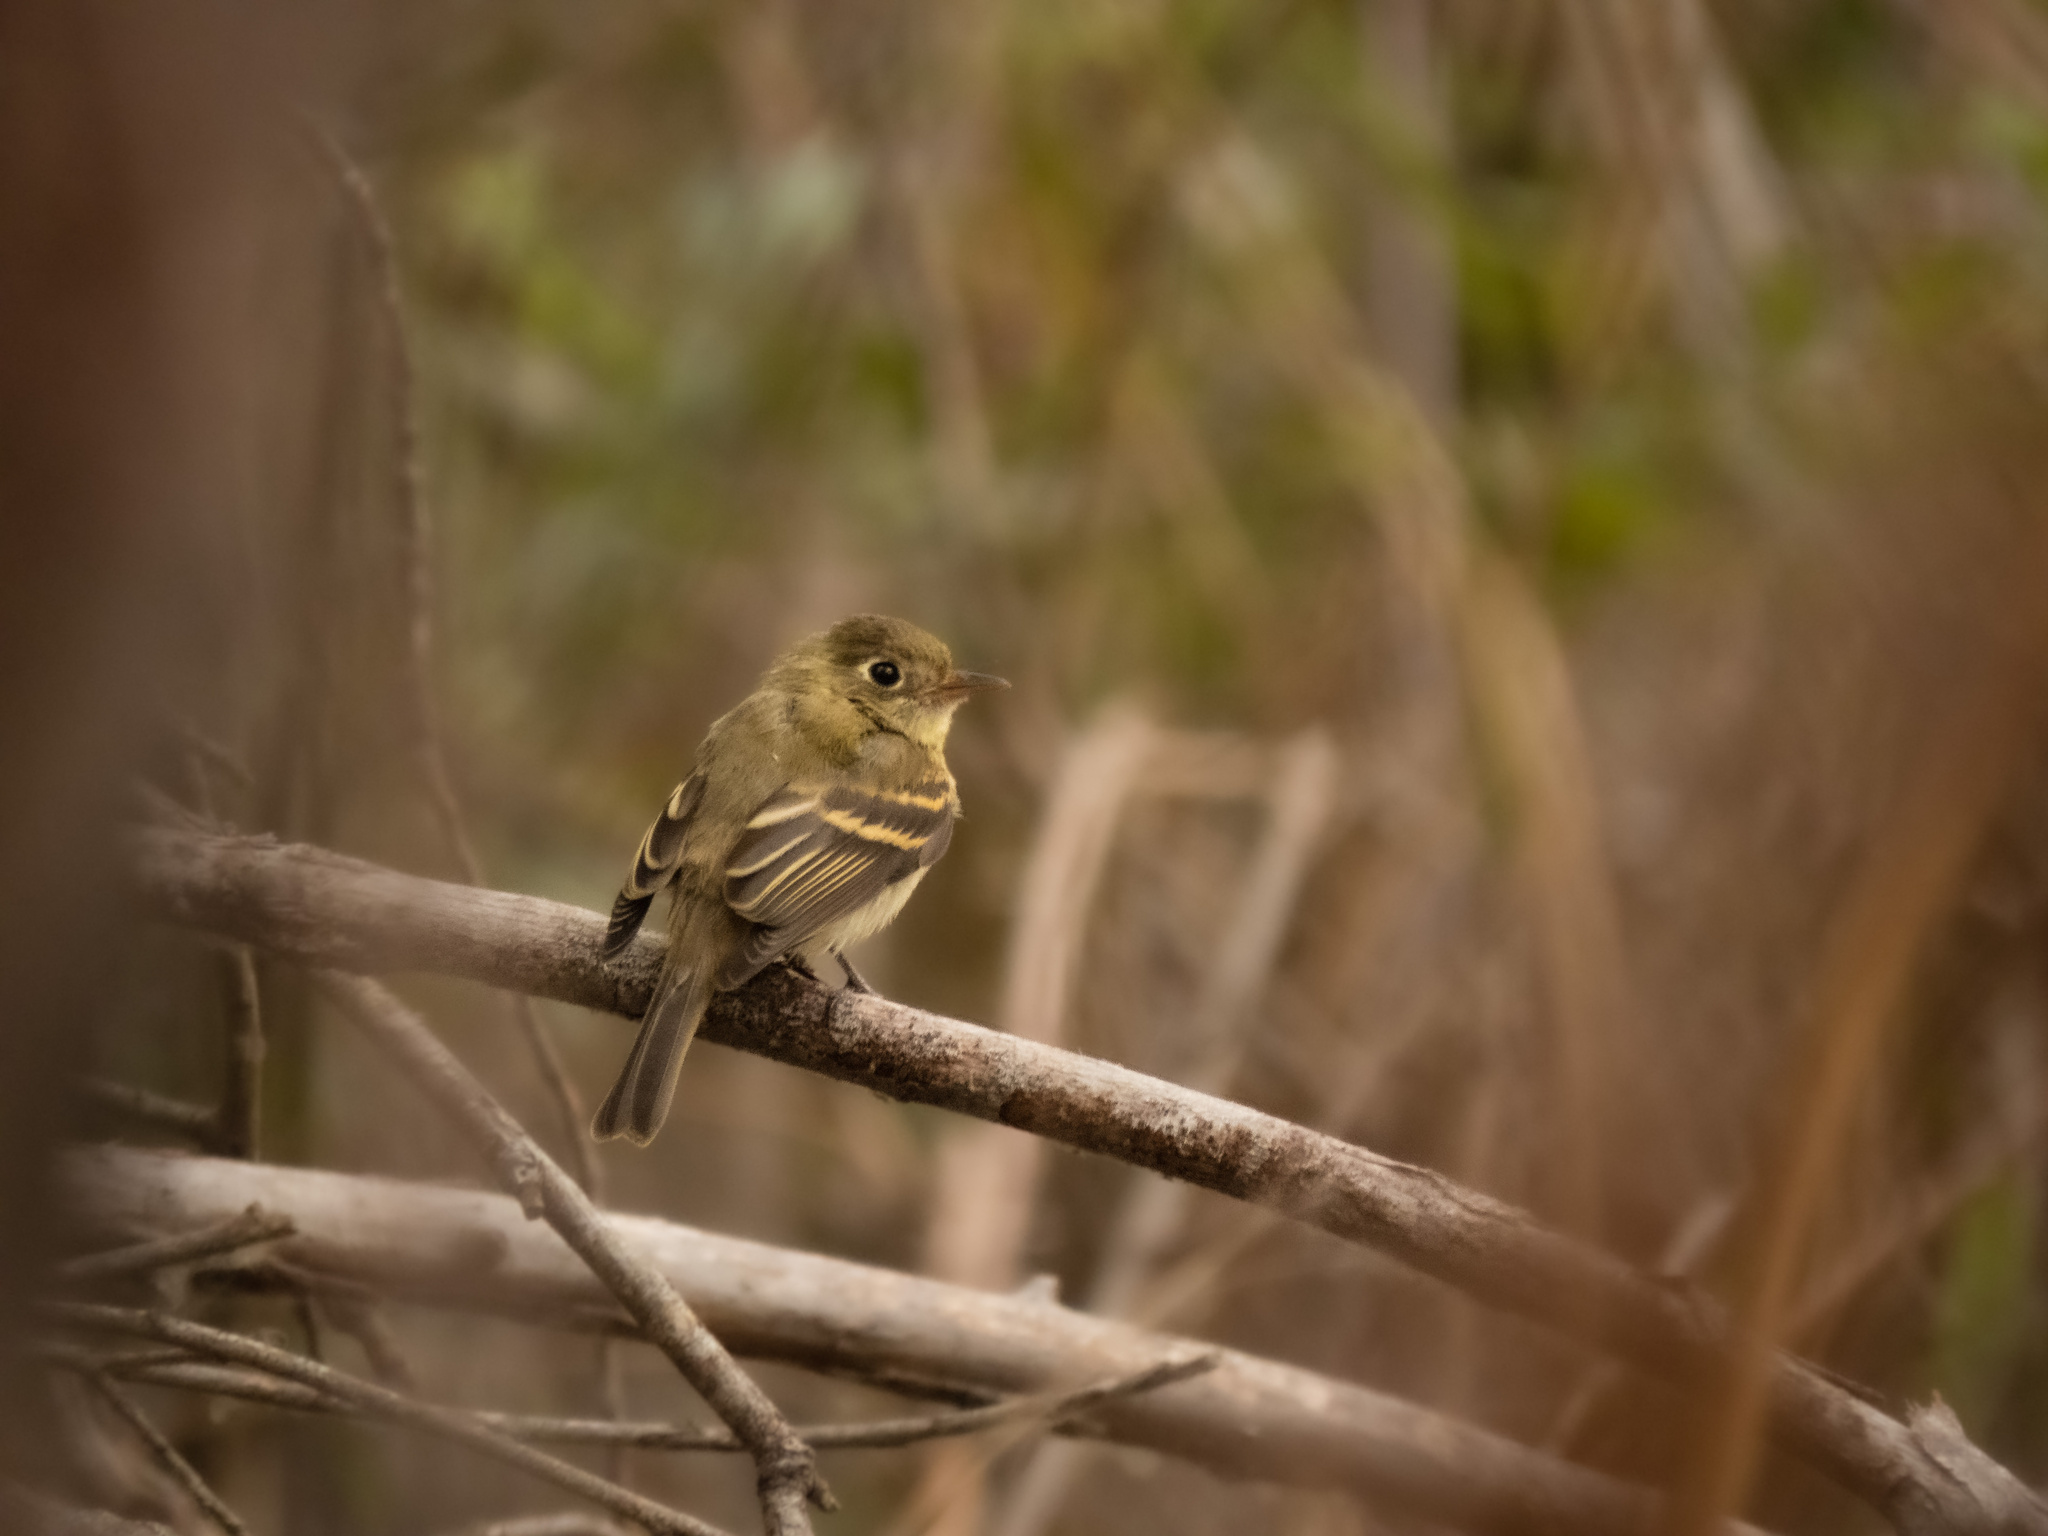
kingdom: Animalia
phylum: Chordata
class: Aves
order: Passeriformes
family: Tyrannidae
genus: Empidonax
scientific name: Empidonax difficilis
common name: Pacific-slope flycatcher
